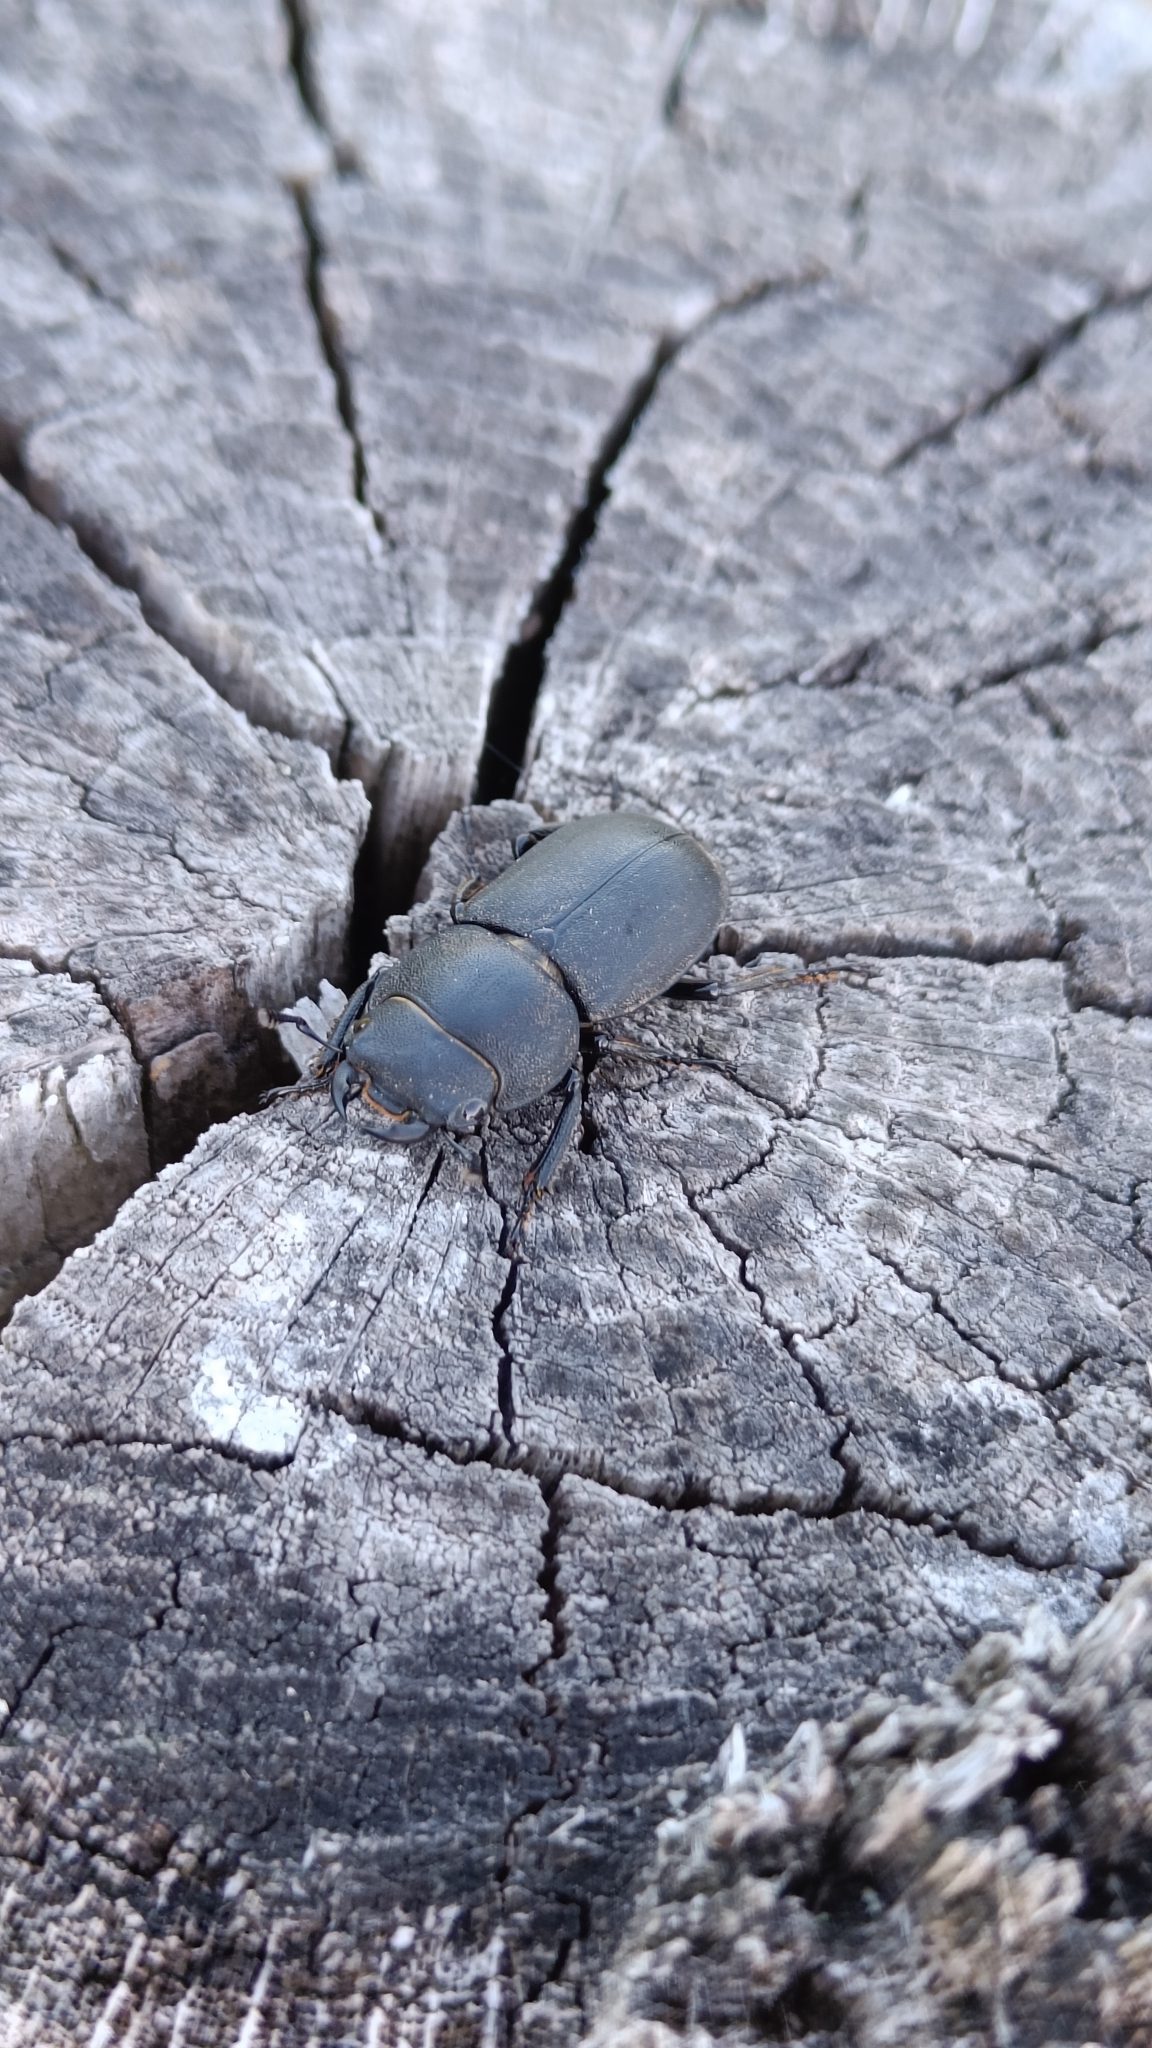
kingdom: Animalia
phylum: Arthropoda
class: Insecta
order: Coleoptera
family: Lucanidae
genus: Dorcus
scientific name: Dorcus parallelipipedus
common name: Lesser stag beetle
